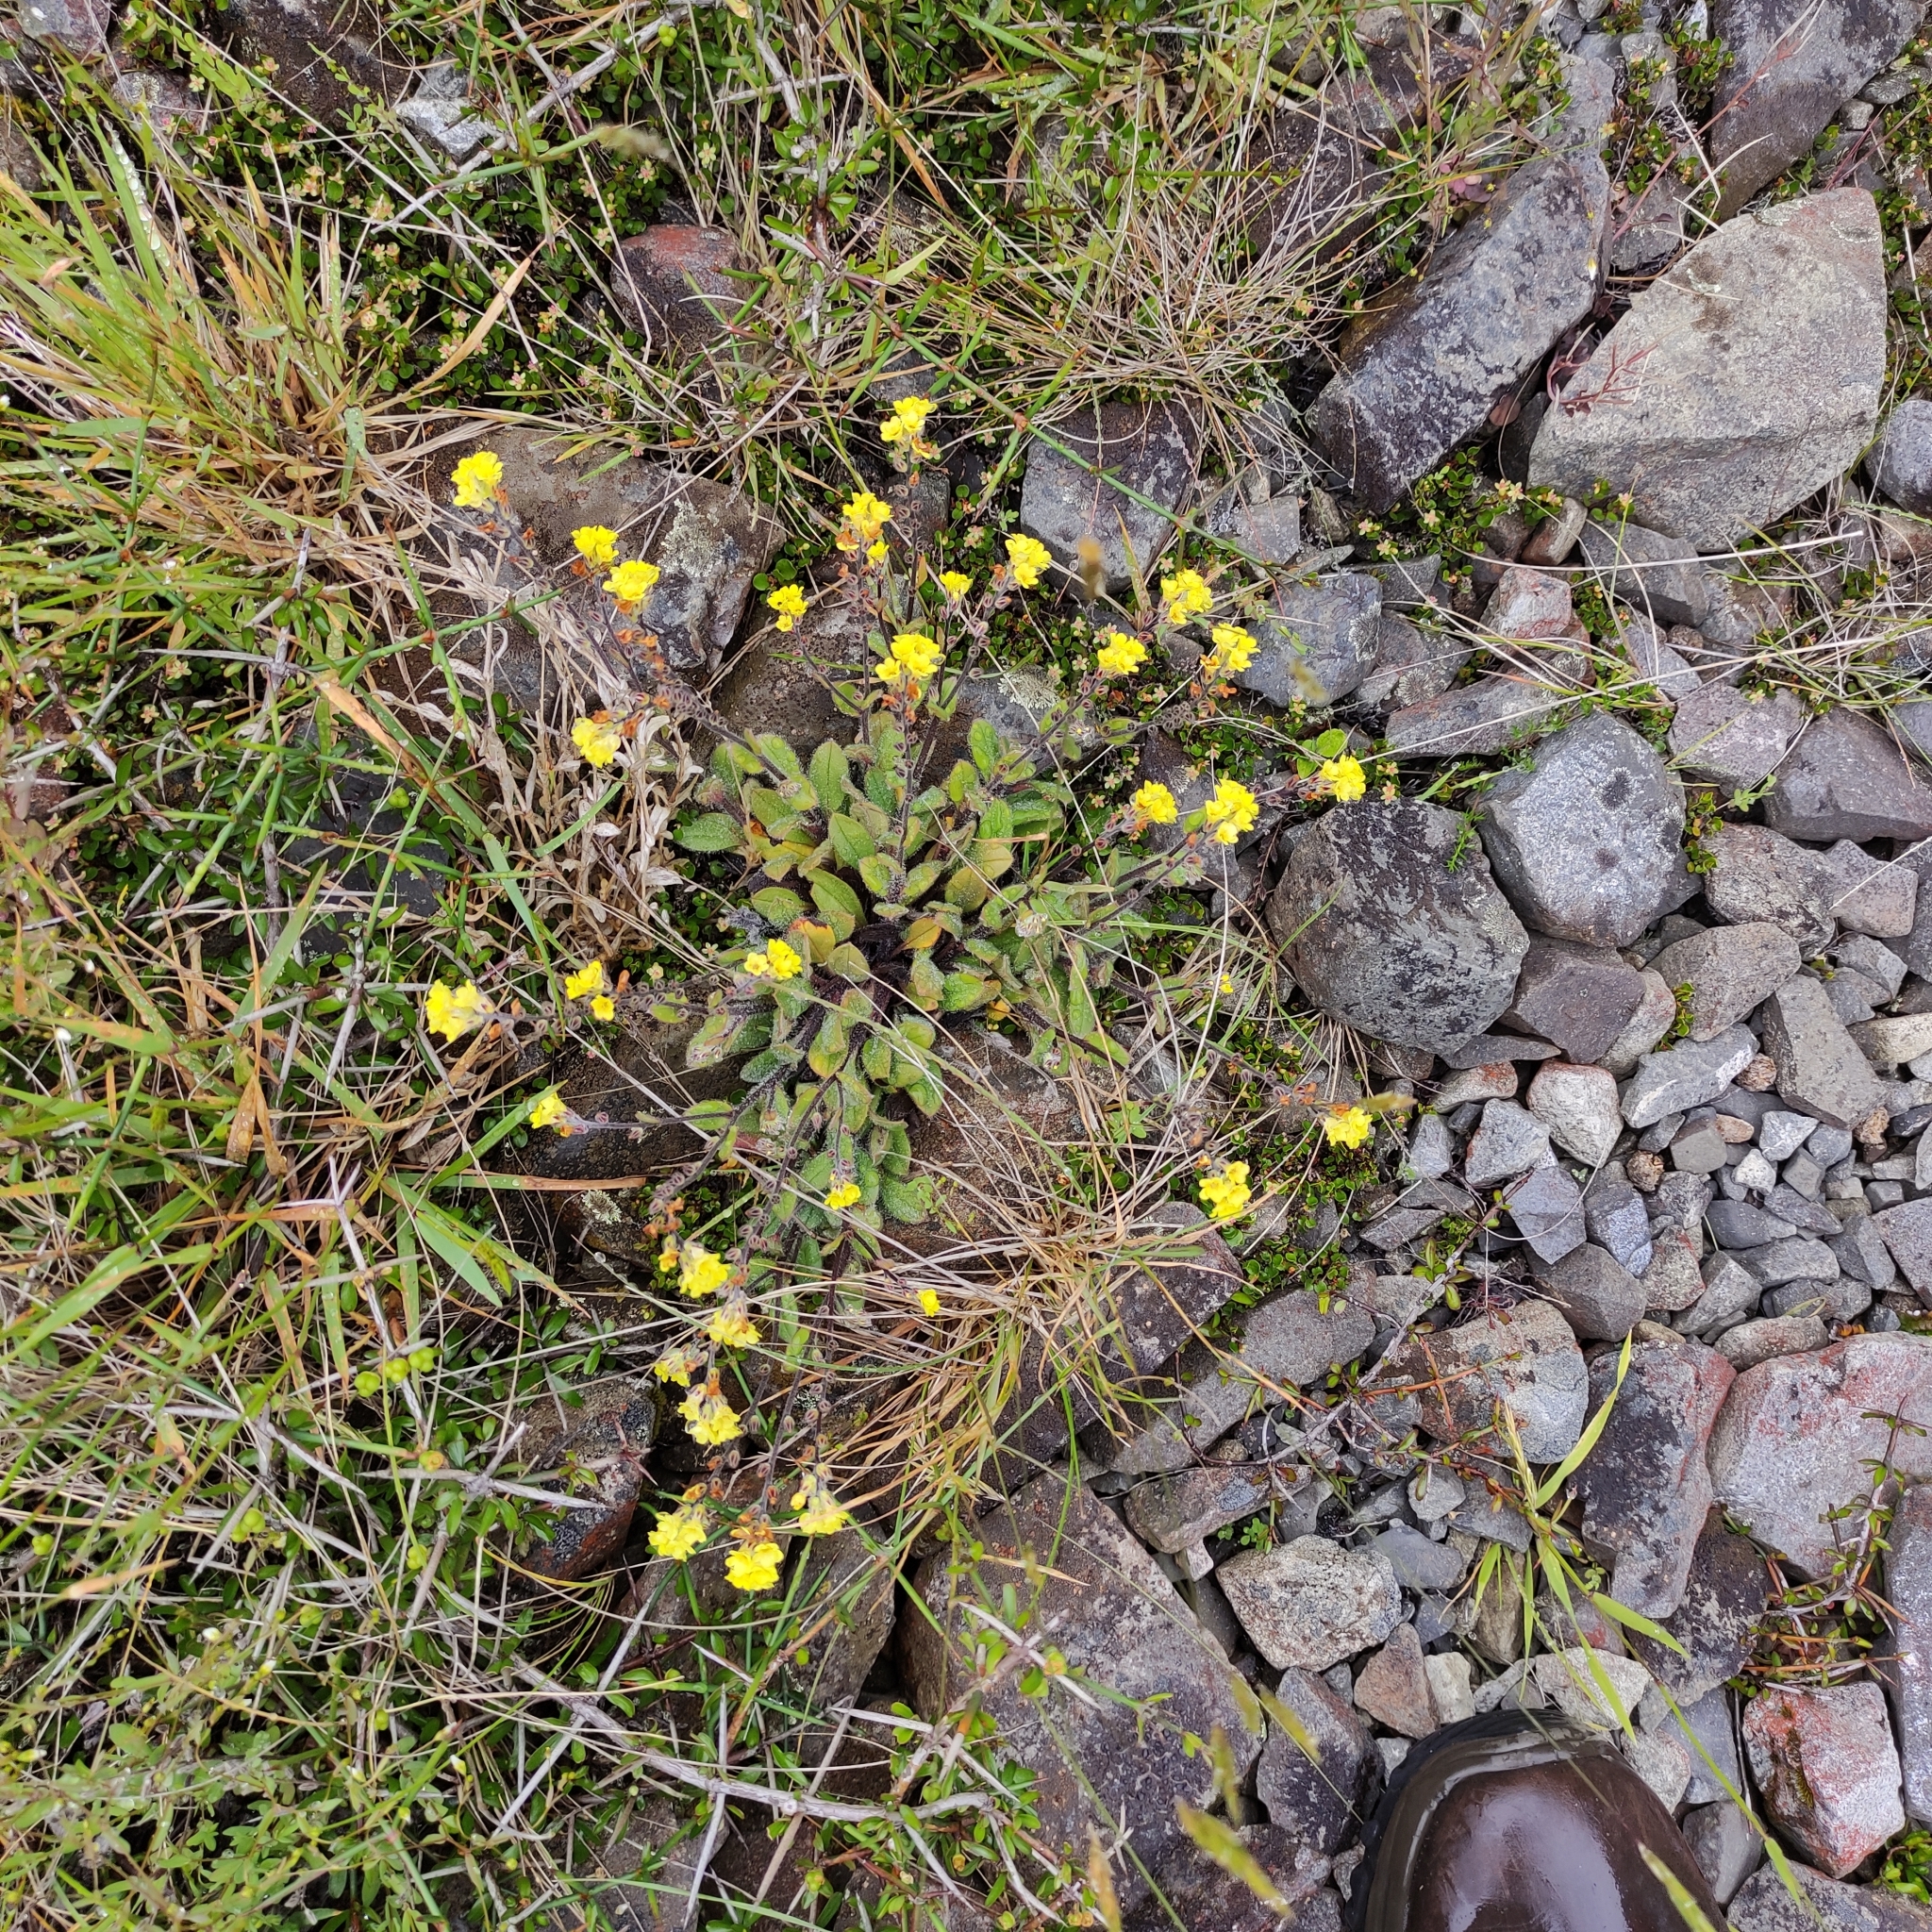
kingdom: Plantae
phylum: Tracheophyta
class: Magnoliopsida
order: Boraginales
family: Boraginaceae
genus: Myosotis
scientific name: Myosotis australis
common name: Australian forget-me-not
